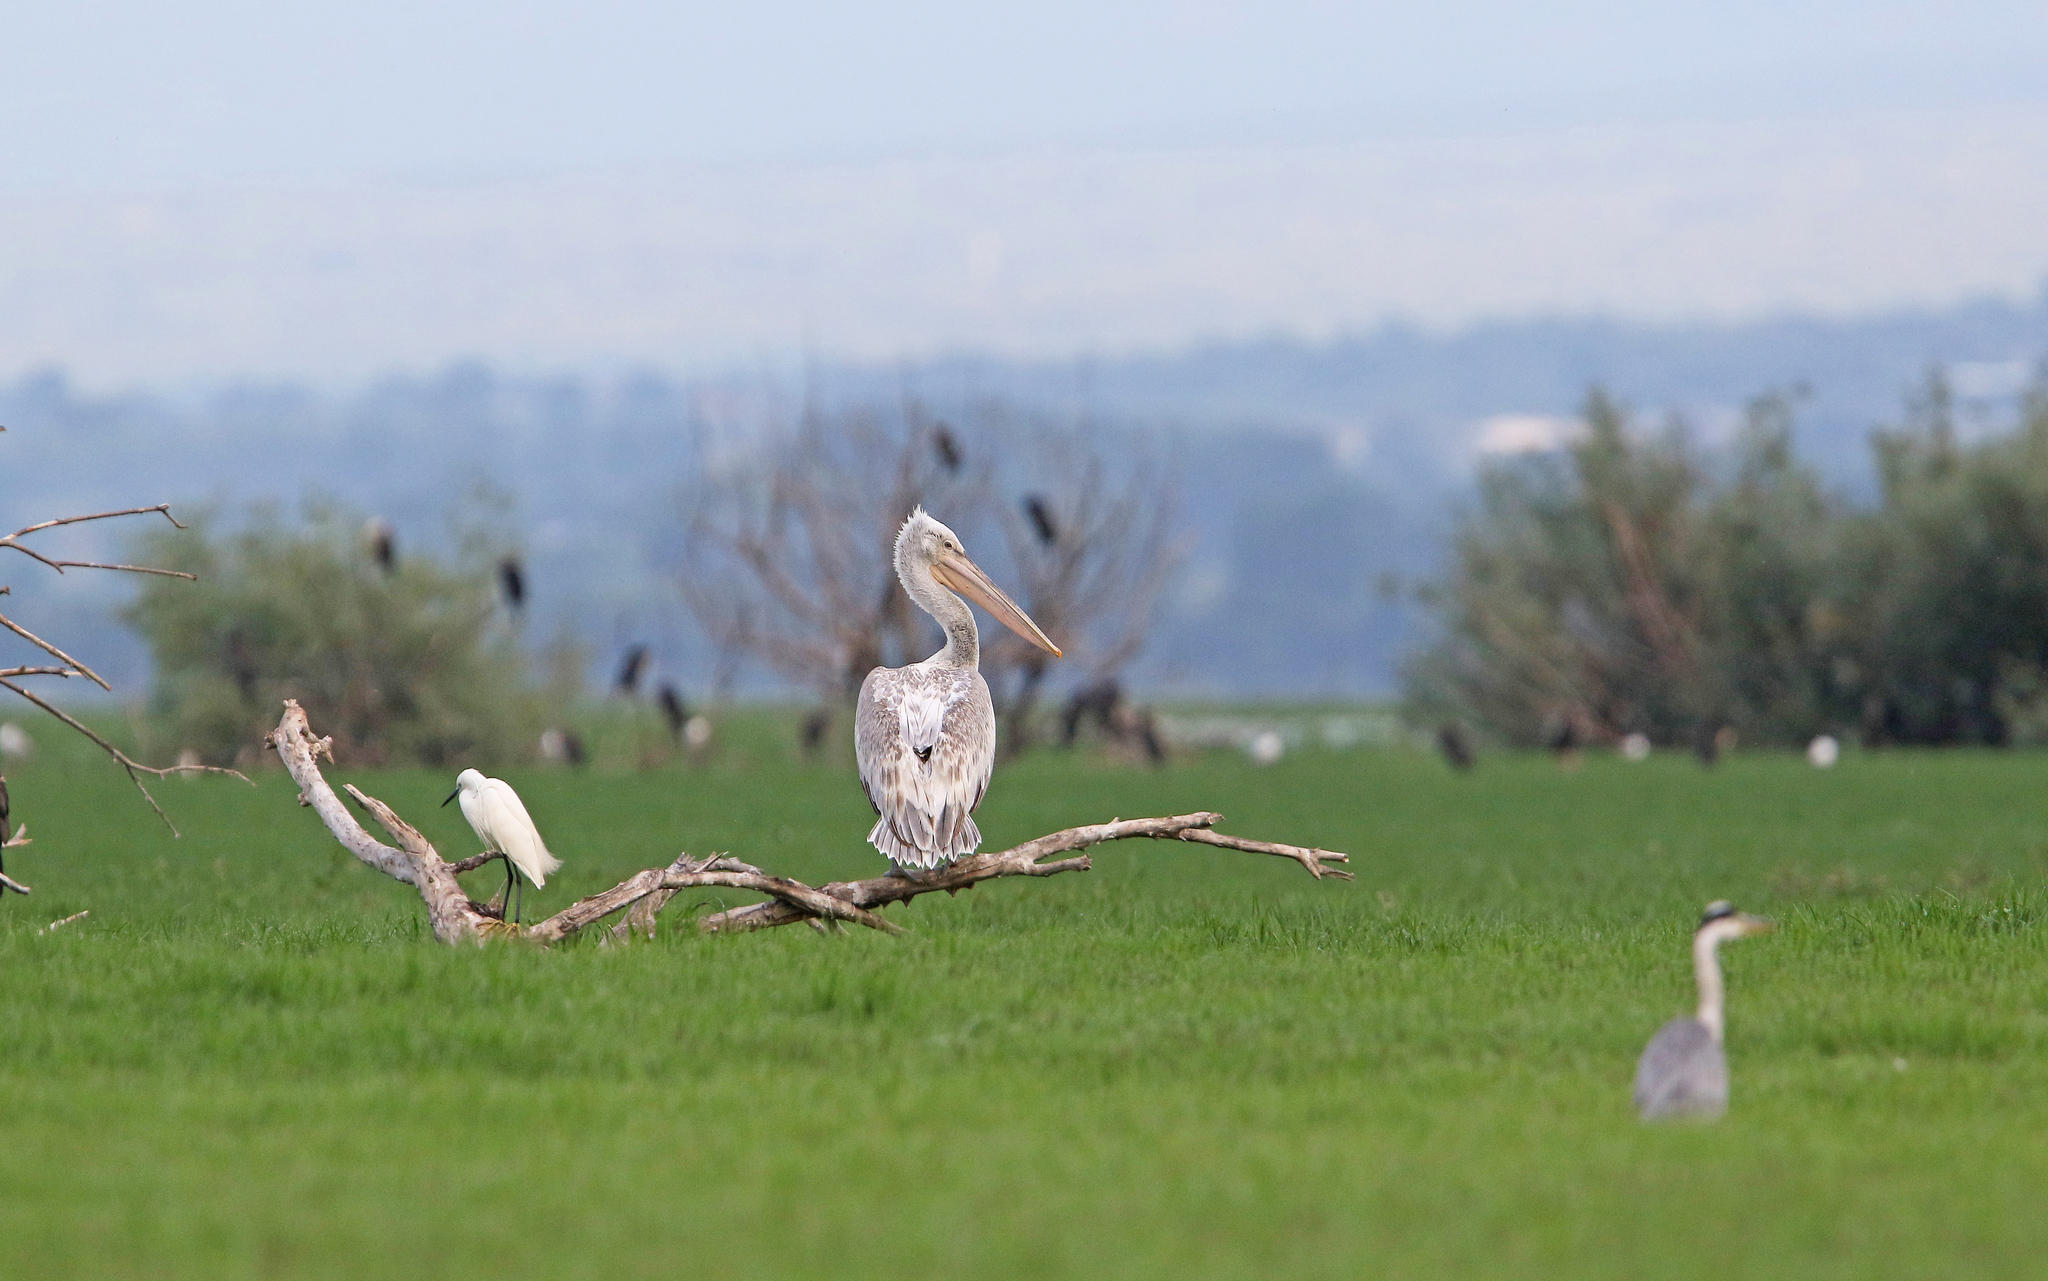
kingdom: Animalia
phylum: Chordata
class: Aves
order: Pelecaniformes
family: Pelecanidae
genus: Pelecanus
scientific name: Pelecanus crispus
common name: Dalmatian pelican
